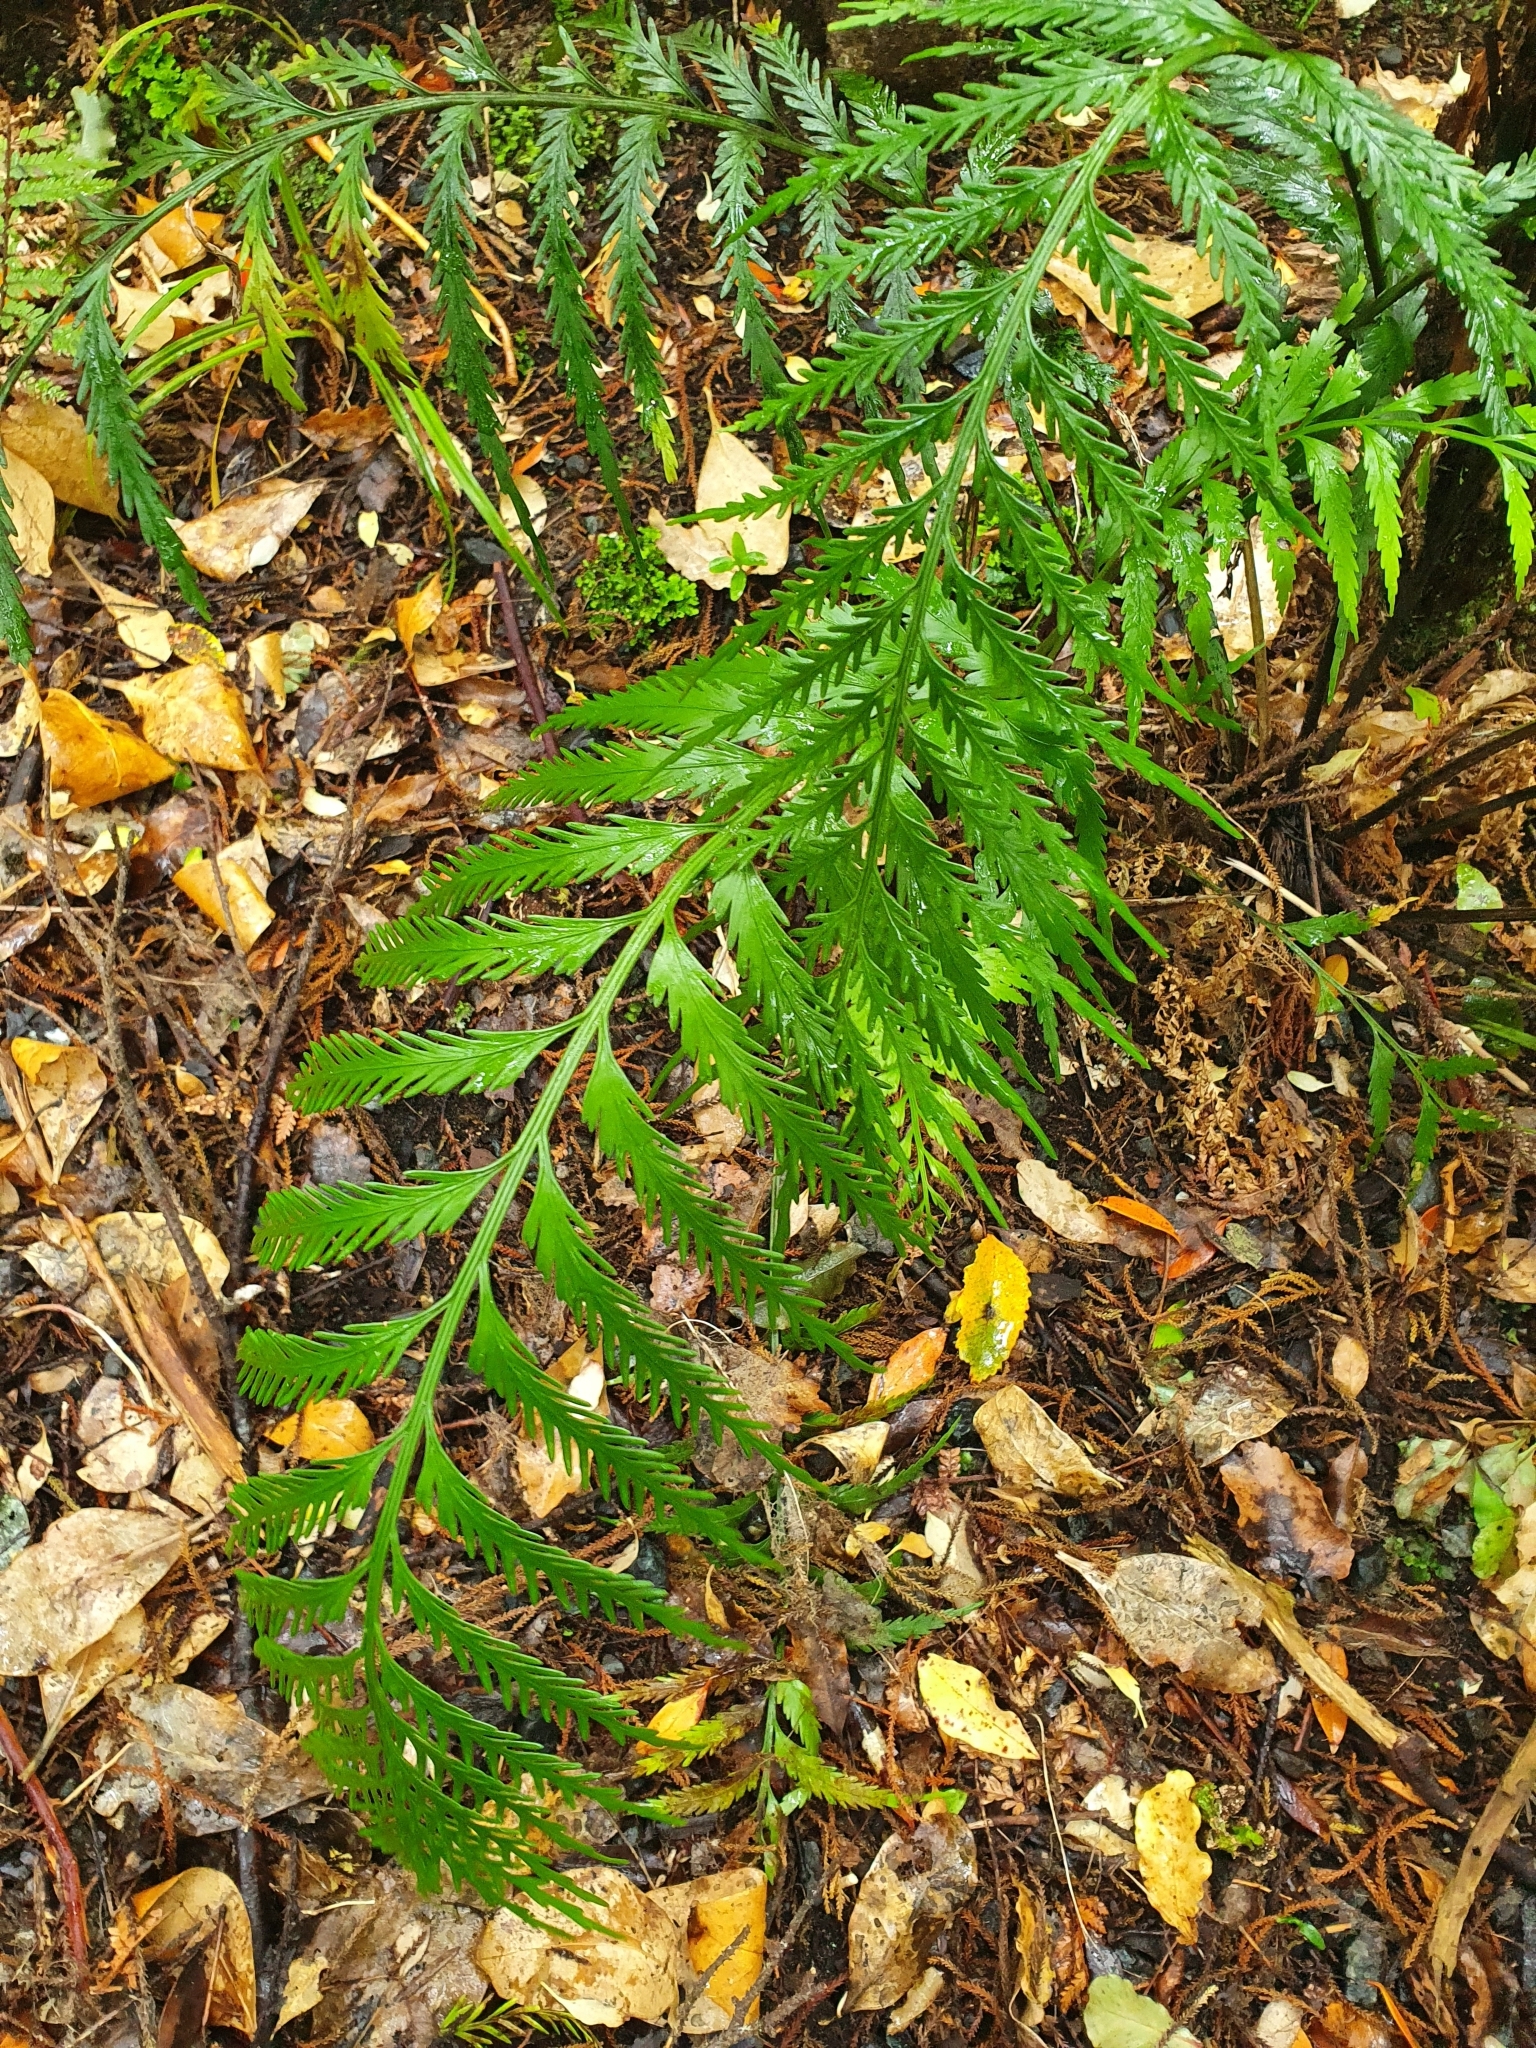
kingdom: Plantae
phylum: Tracheophyta
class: Polypodiopsida
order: Polypodiales
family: Aspleniaceae
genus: Asplenium
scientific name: Asplenium scleroprium
